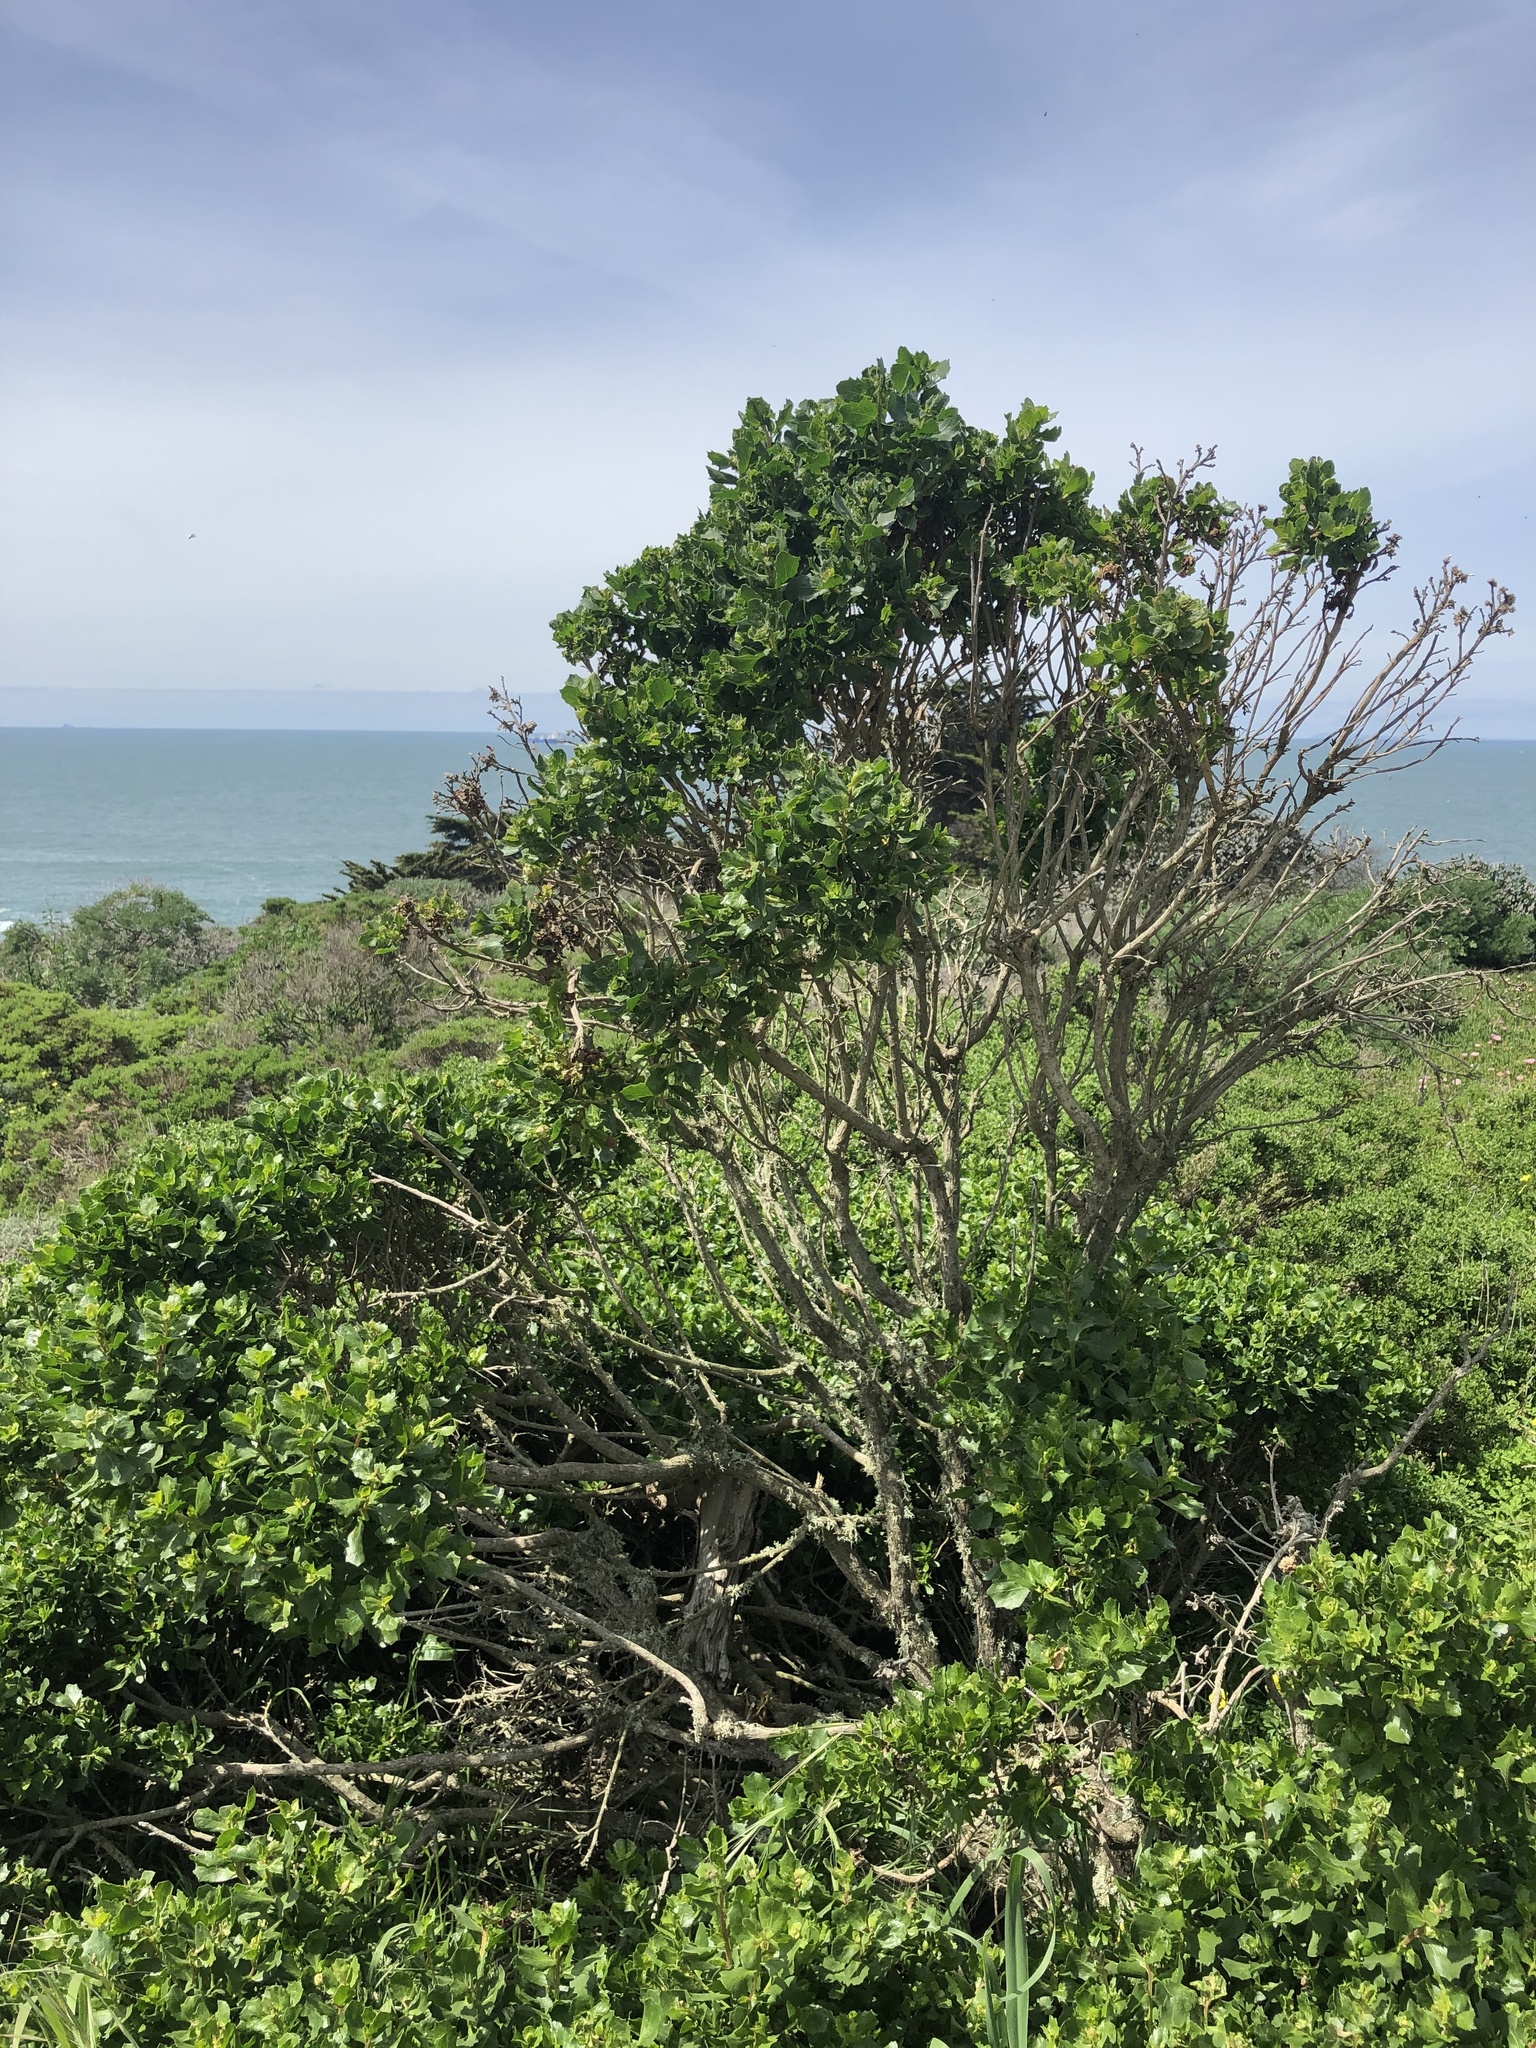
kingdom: Plantae
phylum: Tracheophyta
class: Magnoliopsida
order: Asterales
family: Asteraceae
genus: Baccharis
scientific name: Baccharis pilularis
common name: Coyotebrush
